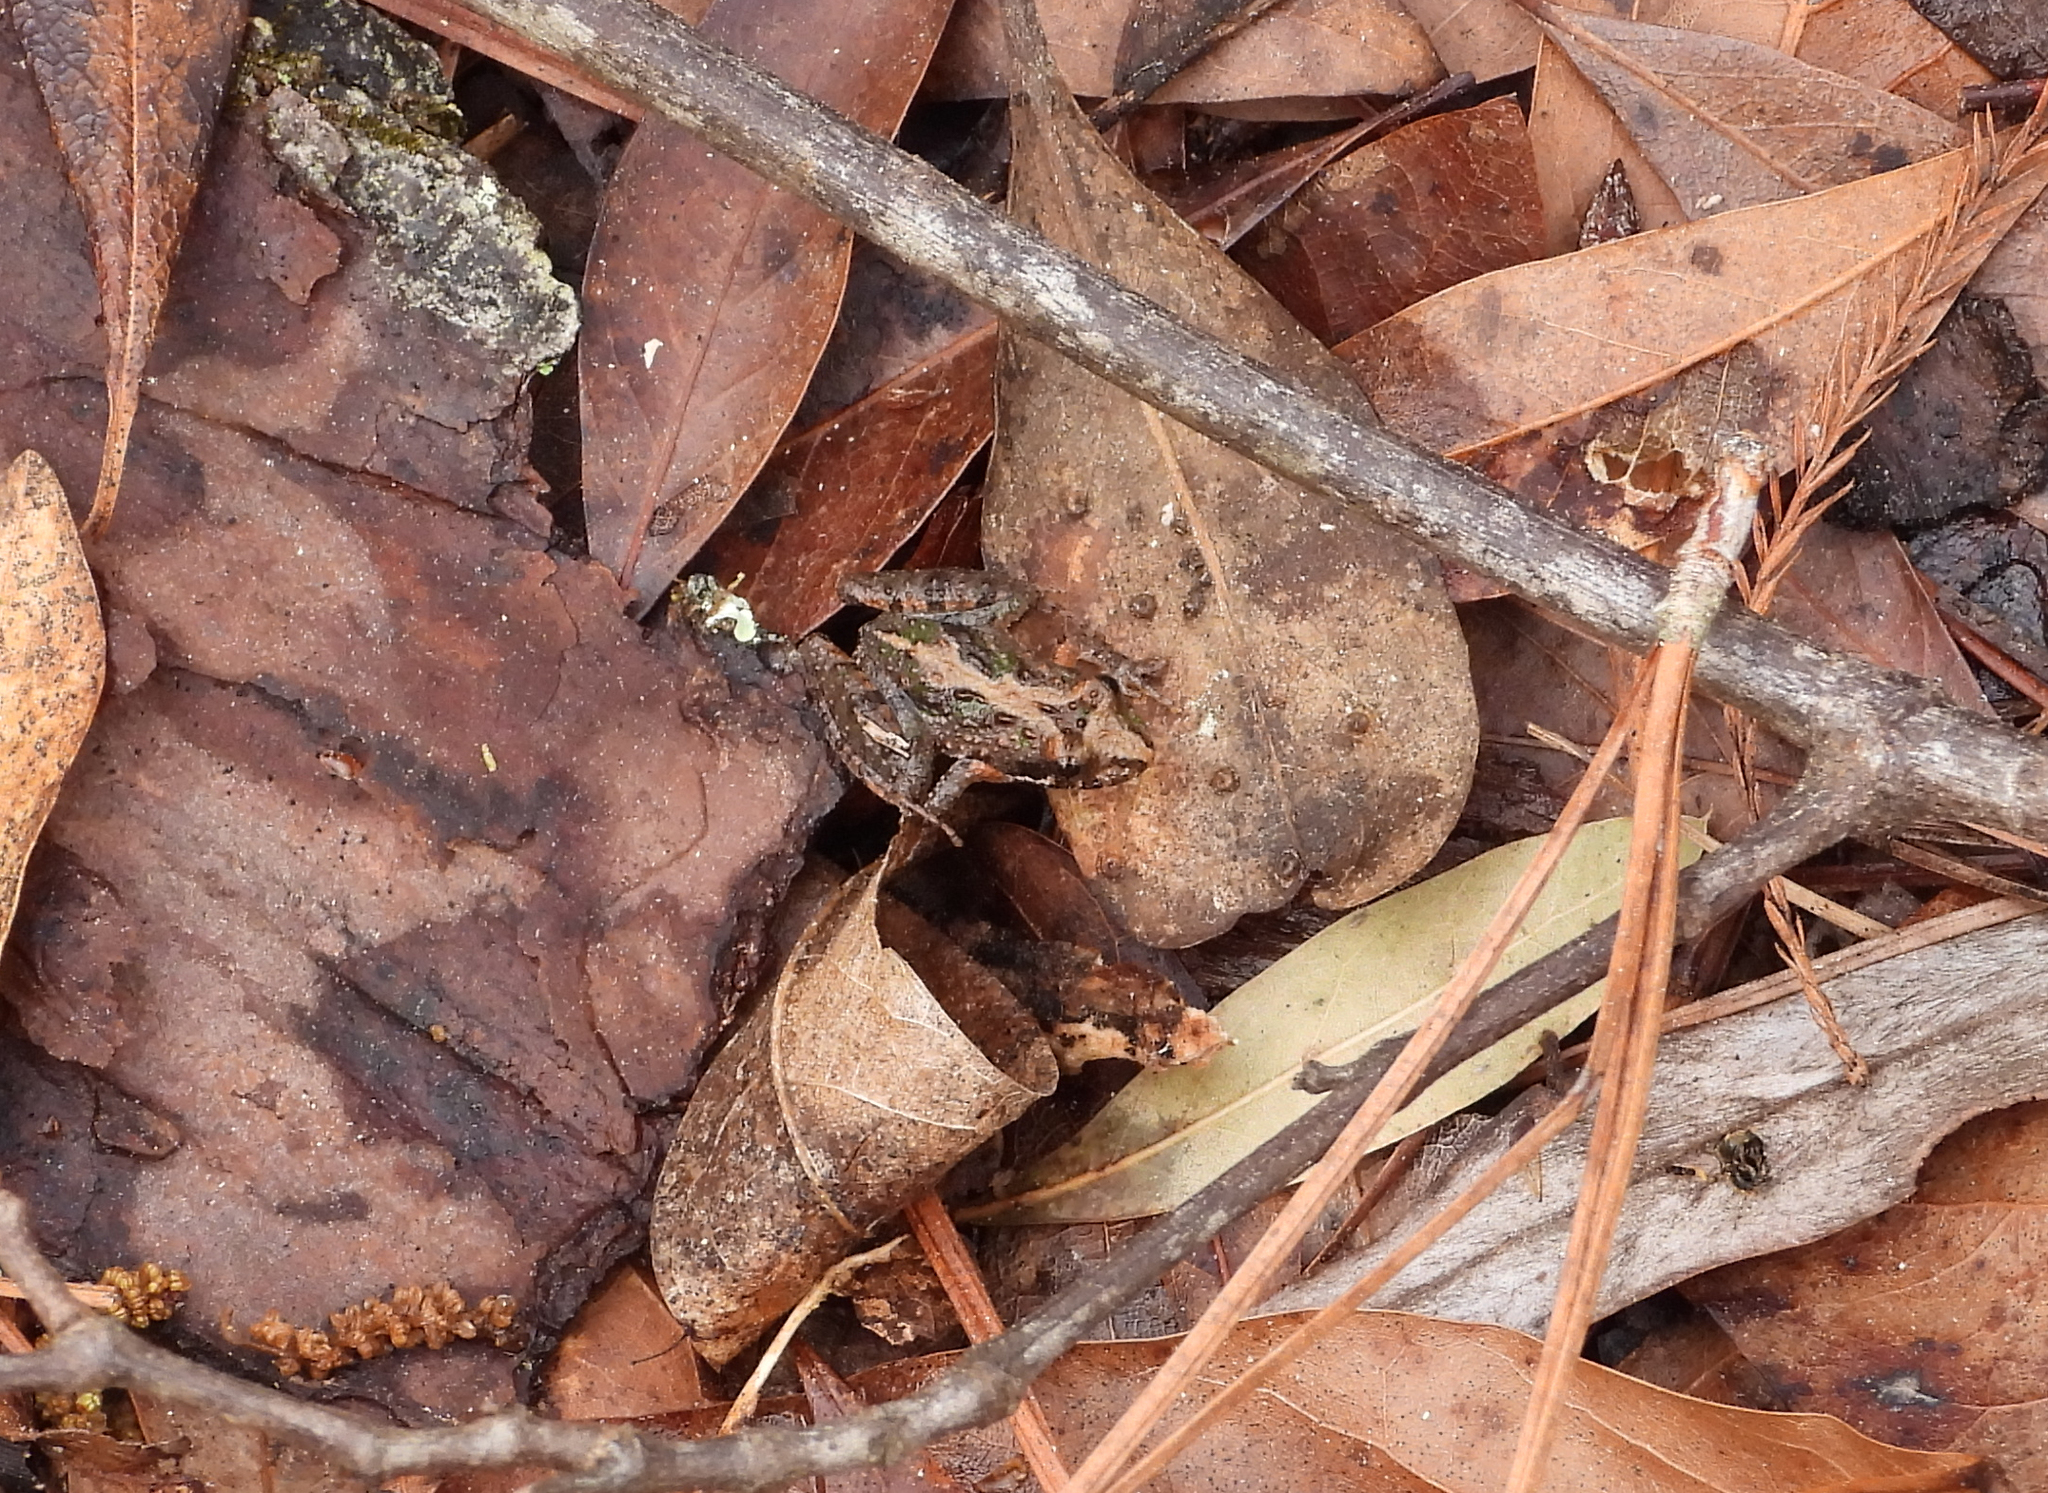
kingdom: Animalia
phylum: Chordata
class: Amphibia
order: Anura
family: Hylidae
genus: Acris
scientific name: Acris gryllus
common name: Southern cricket frog
